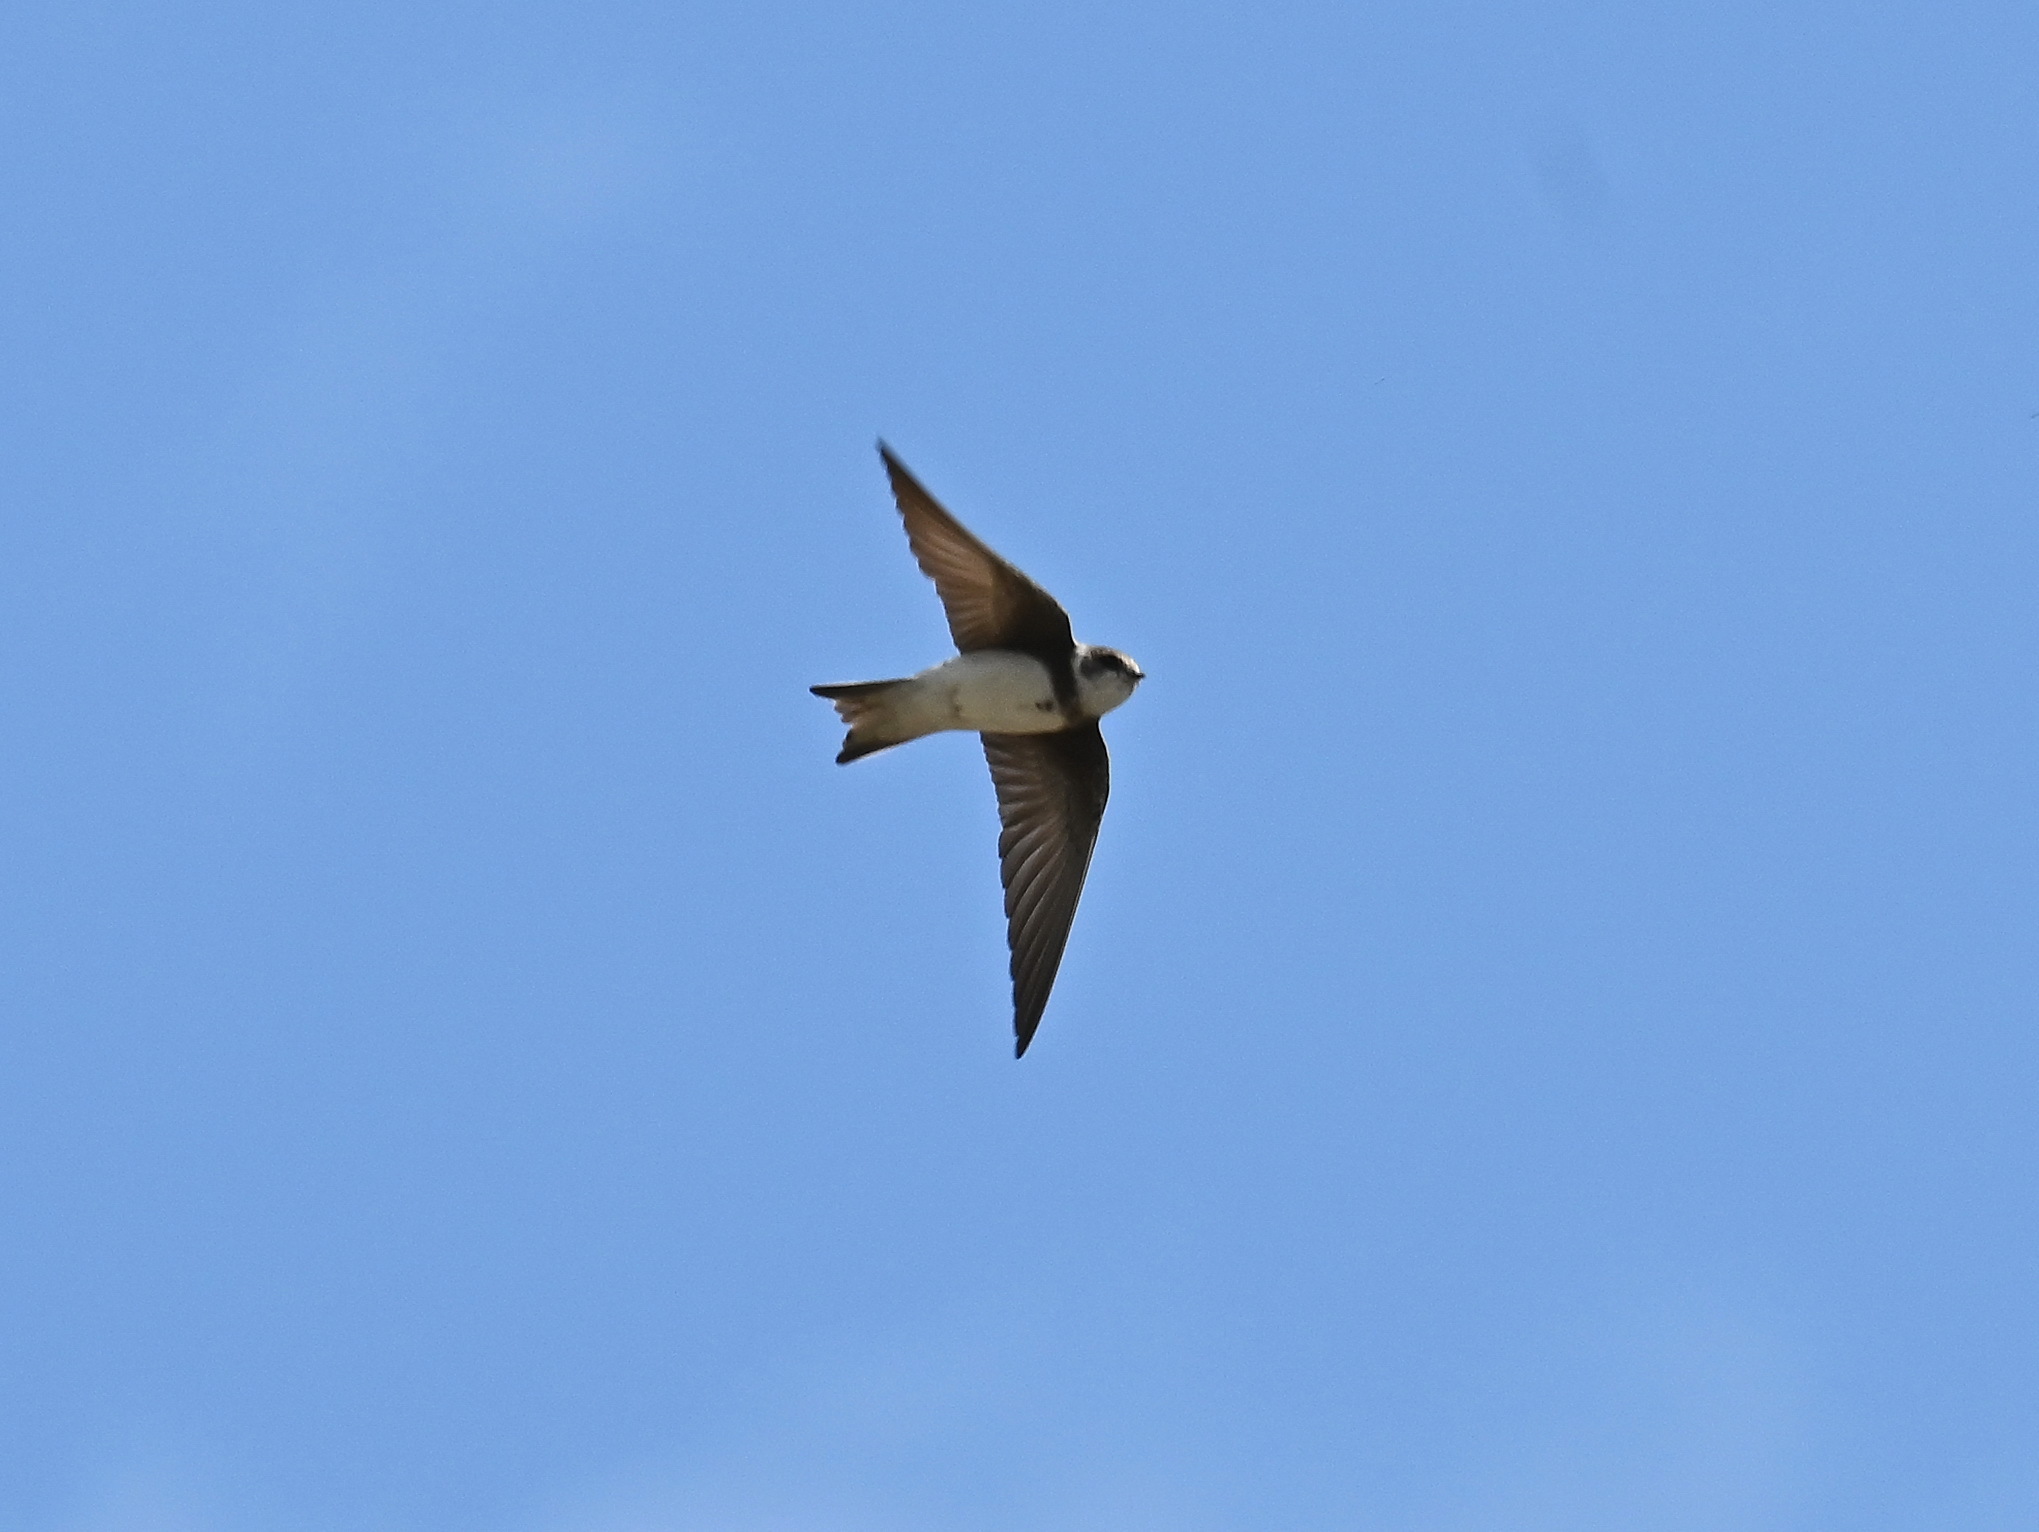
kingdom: Animalia
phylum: Chordata
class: Aves
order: Passeriformes
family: Hirundinidae
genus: Riparia
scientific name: Riparia riparia
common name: Sand martin
